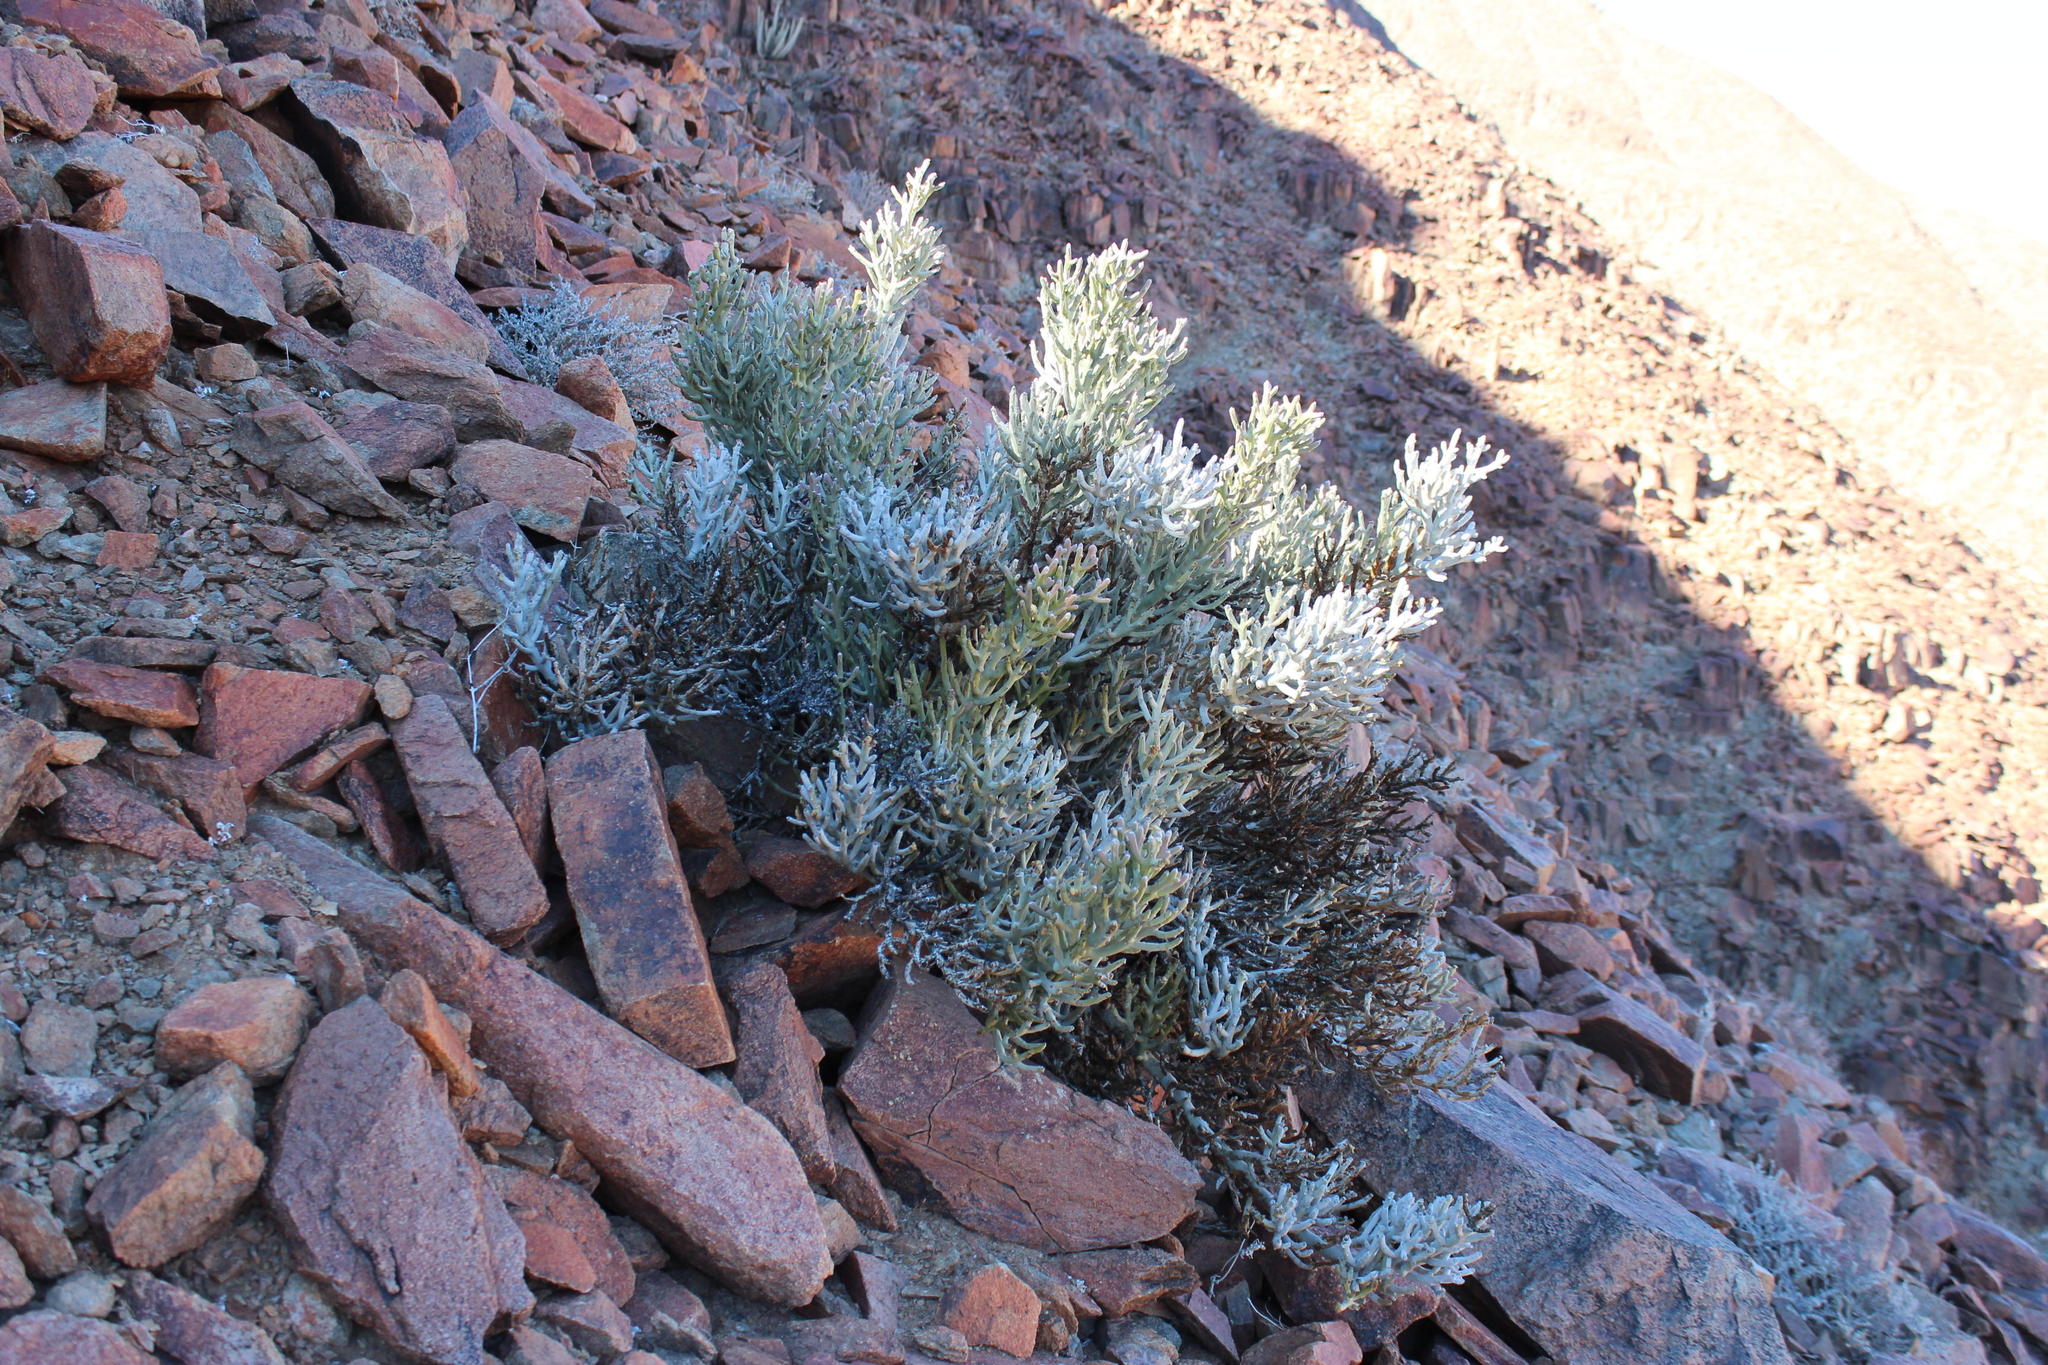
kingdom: Plantae
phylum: Tracheophyta
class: Magnoliopsida
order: Malpighiales
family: Euphorbiaceae
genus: Euphorbia
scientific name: Euphorbia gummifera
